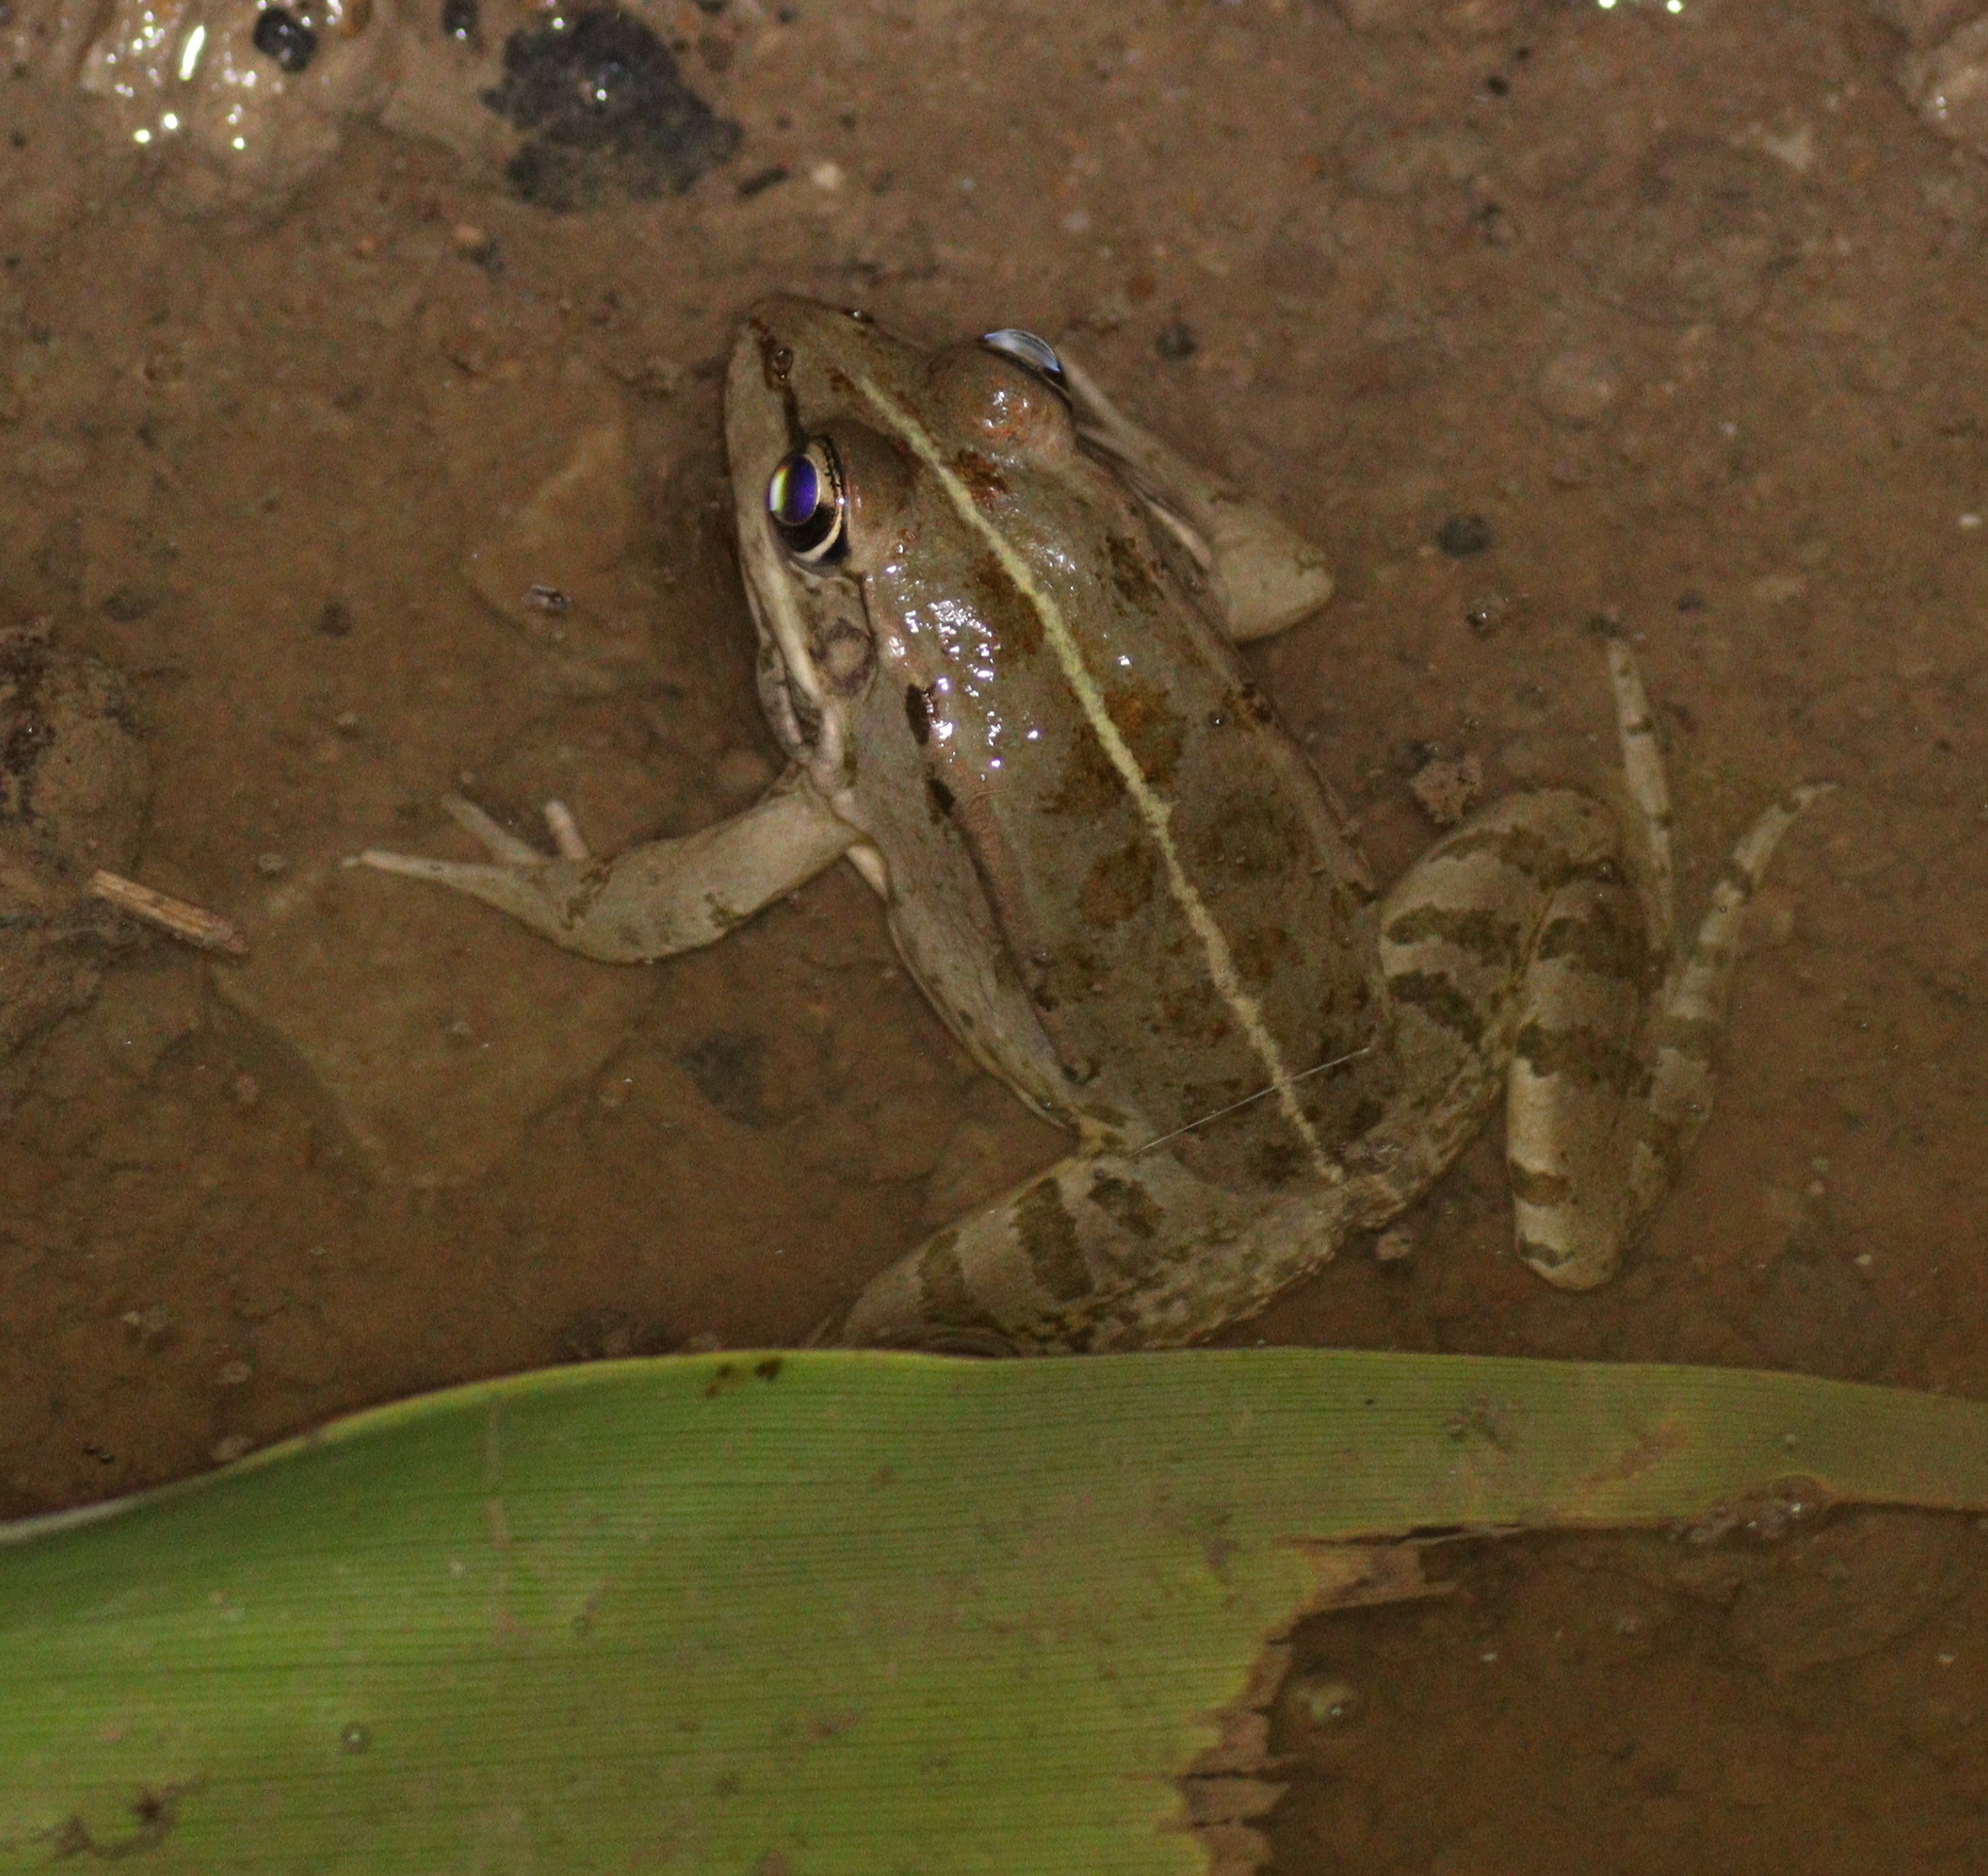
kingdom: Animalia
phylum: Chordata
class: Amphibia
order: Anura
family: Ranidae
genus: Pelophylax
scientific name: Pelophylax ridibundus
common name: Marsh frog
